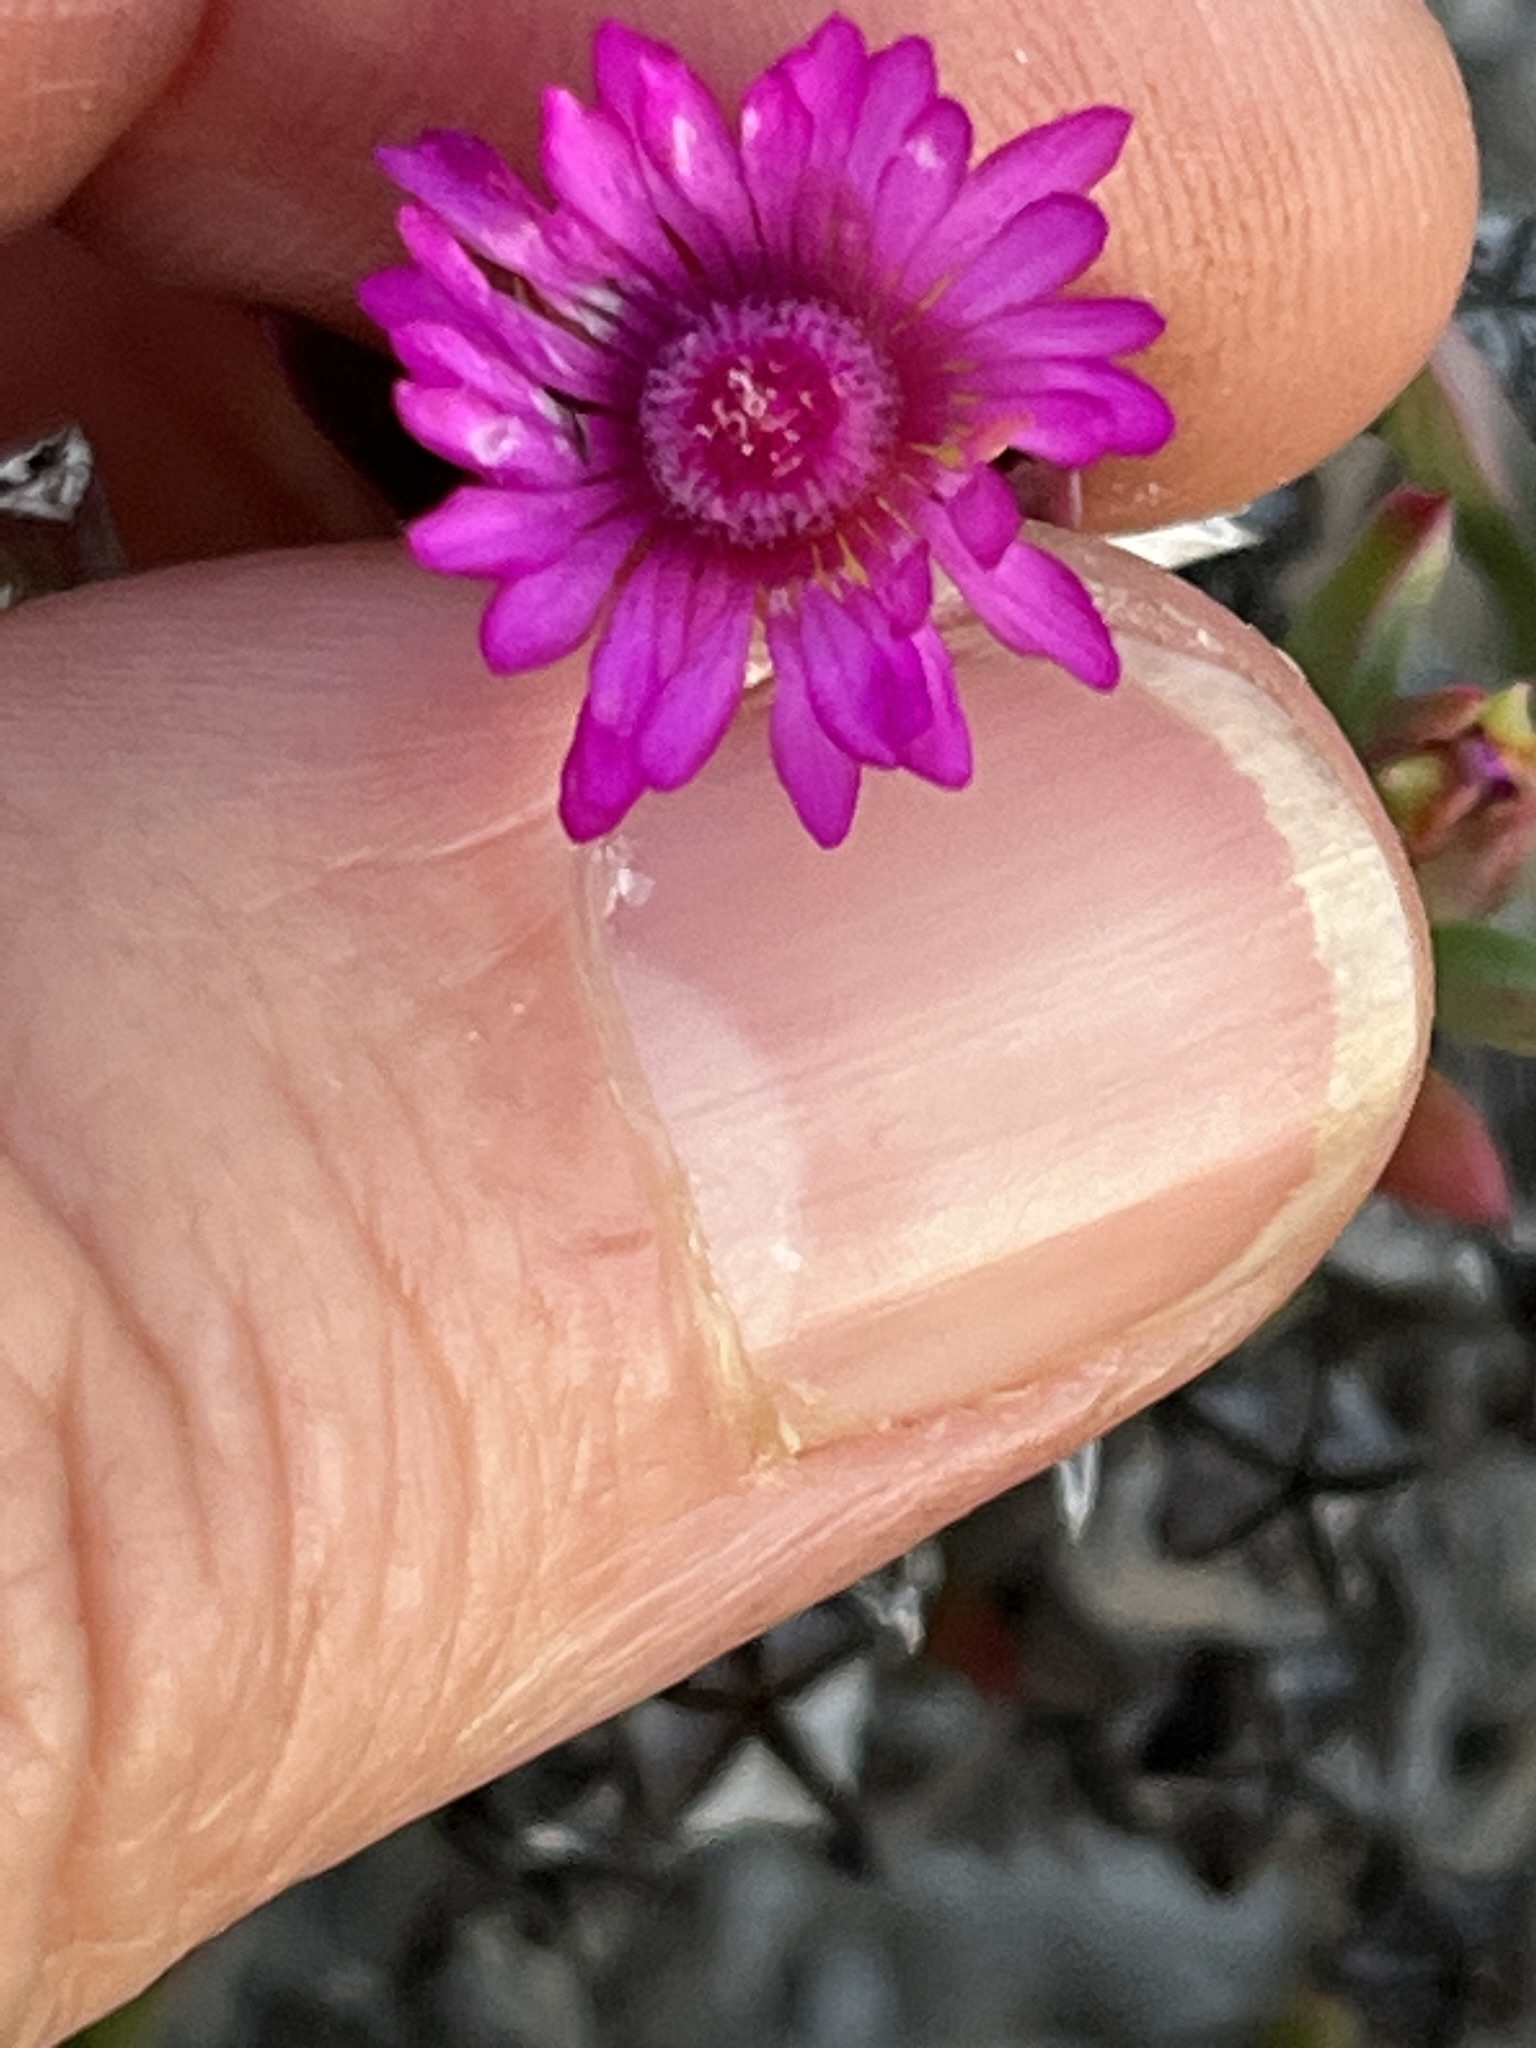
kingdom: Plantae
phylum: Tracheophyta
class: Magnoliopsida
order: Caryophyllales
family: Aizoaceae
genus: Ruschia
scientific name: Ruschia calcicola
